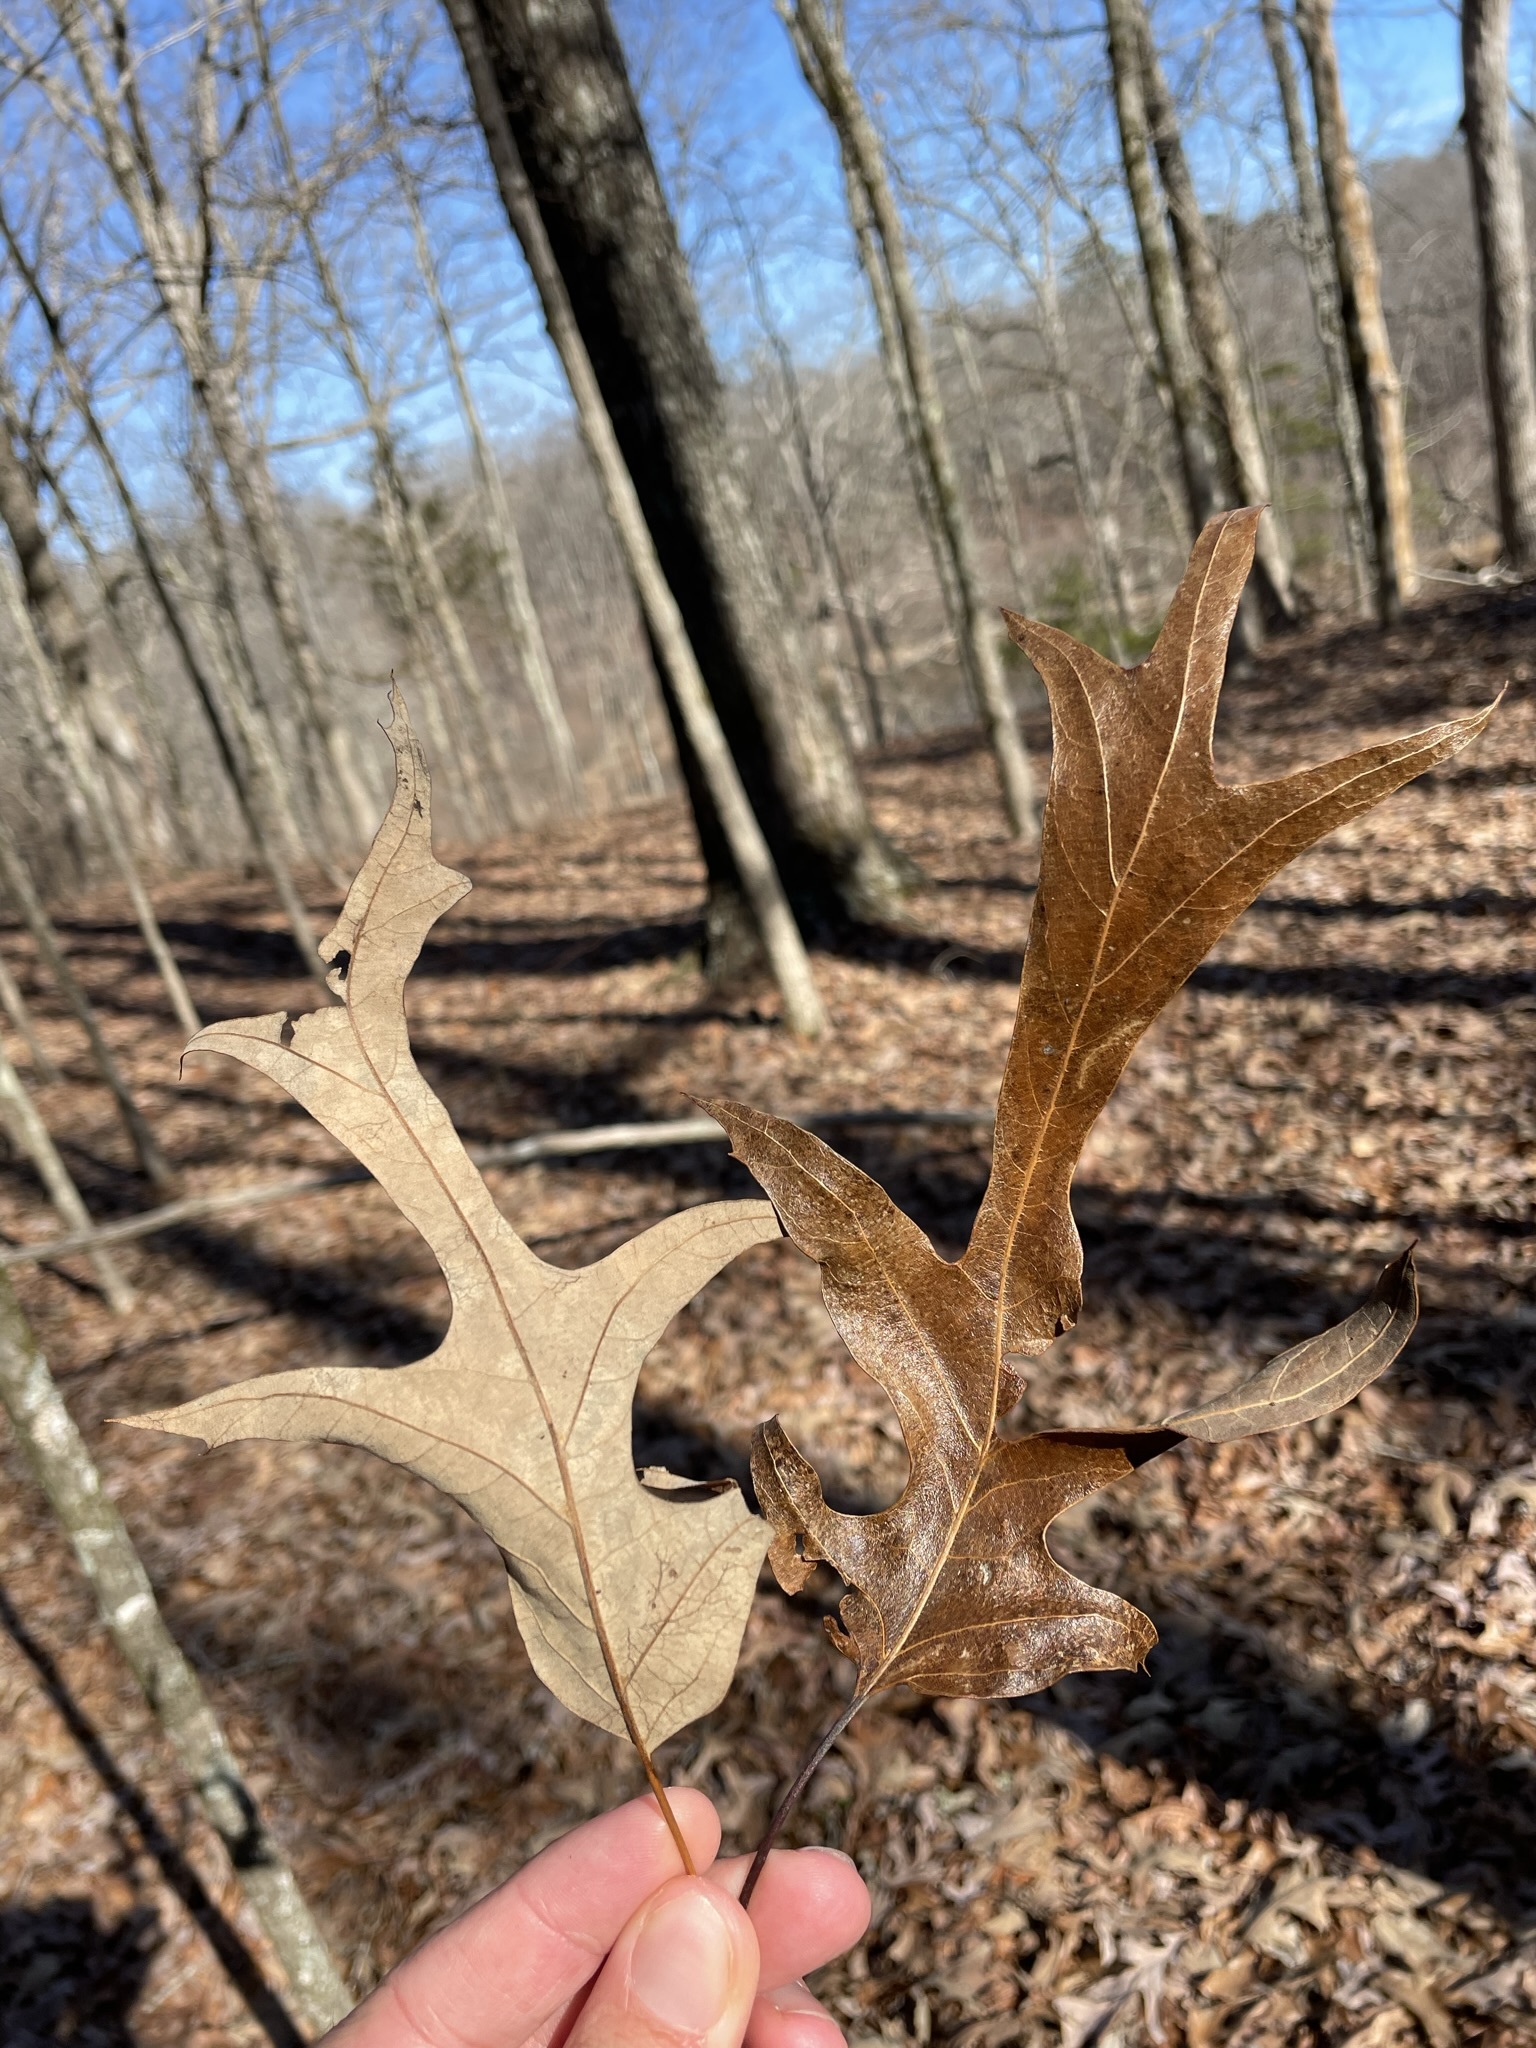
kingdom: Plantae
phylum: Tracheophyta
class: Magnoliopsida
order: Fagales
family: Fagaceae
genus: Quercus
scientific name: Quercus falcata
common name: Southern red oak
